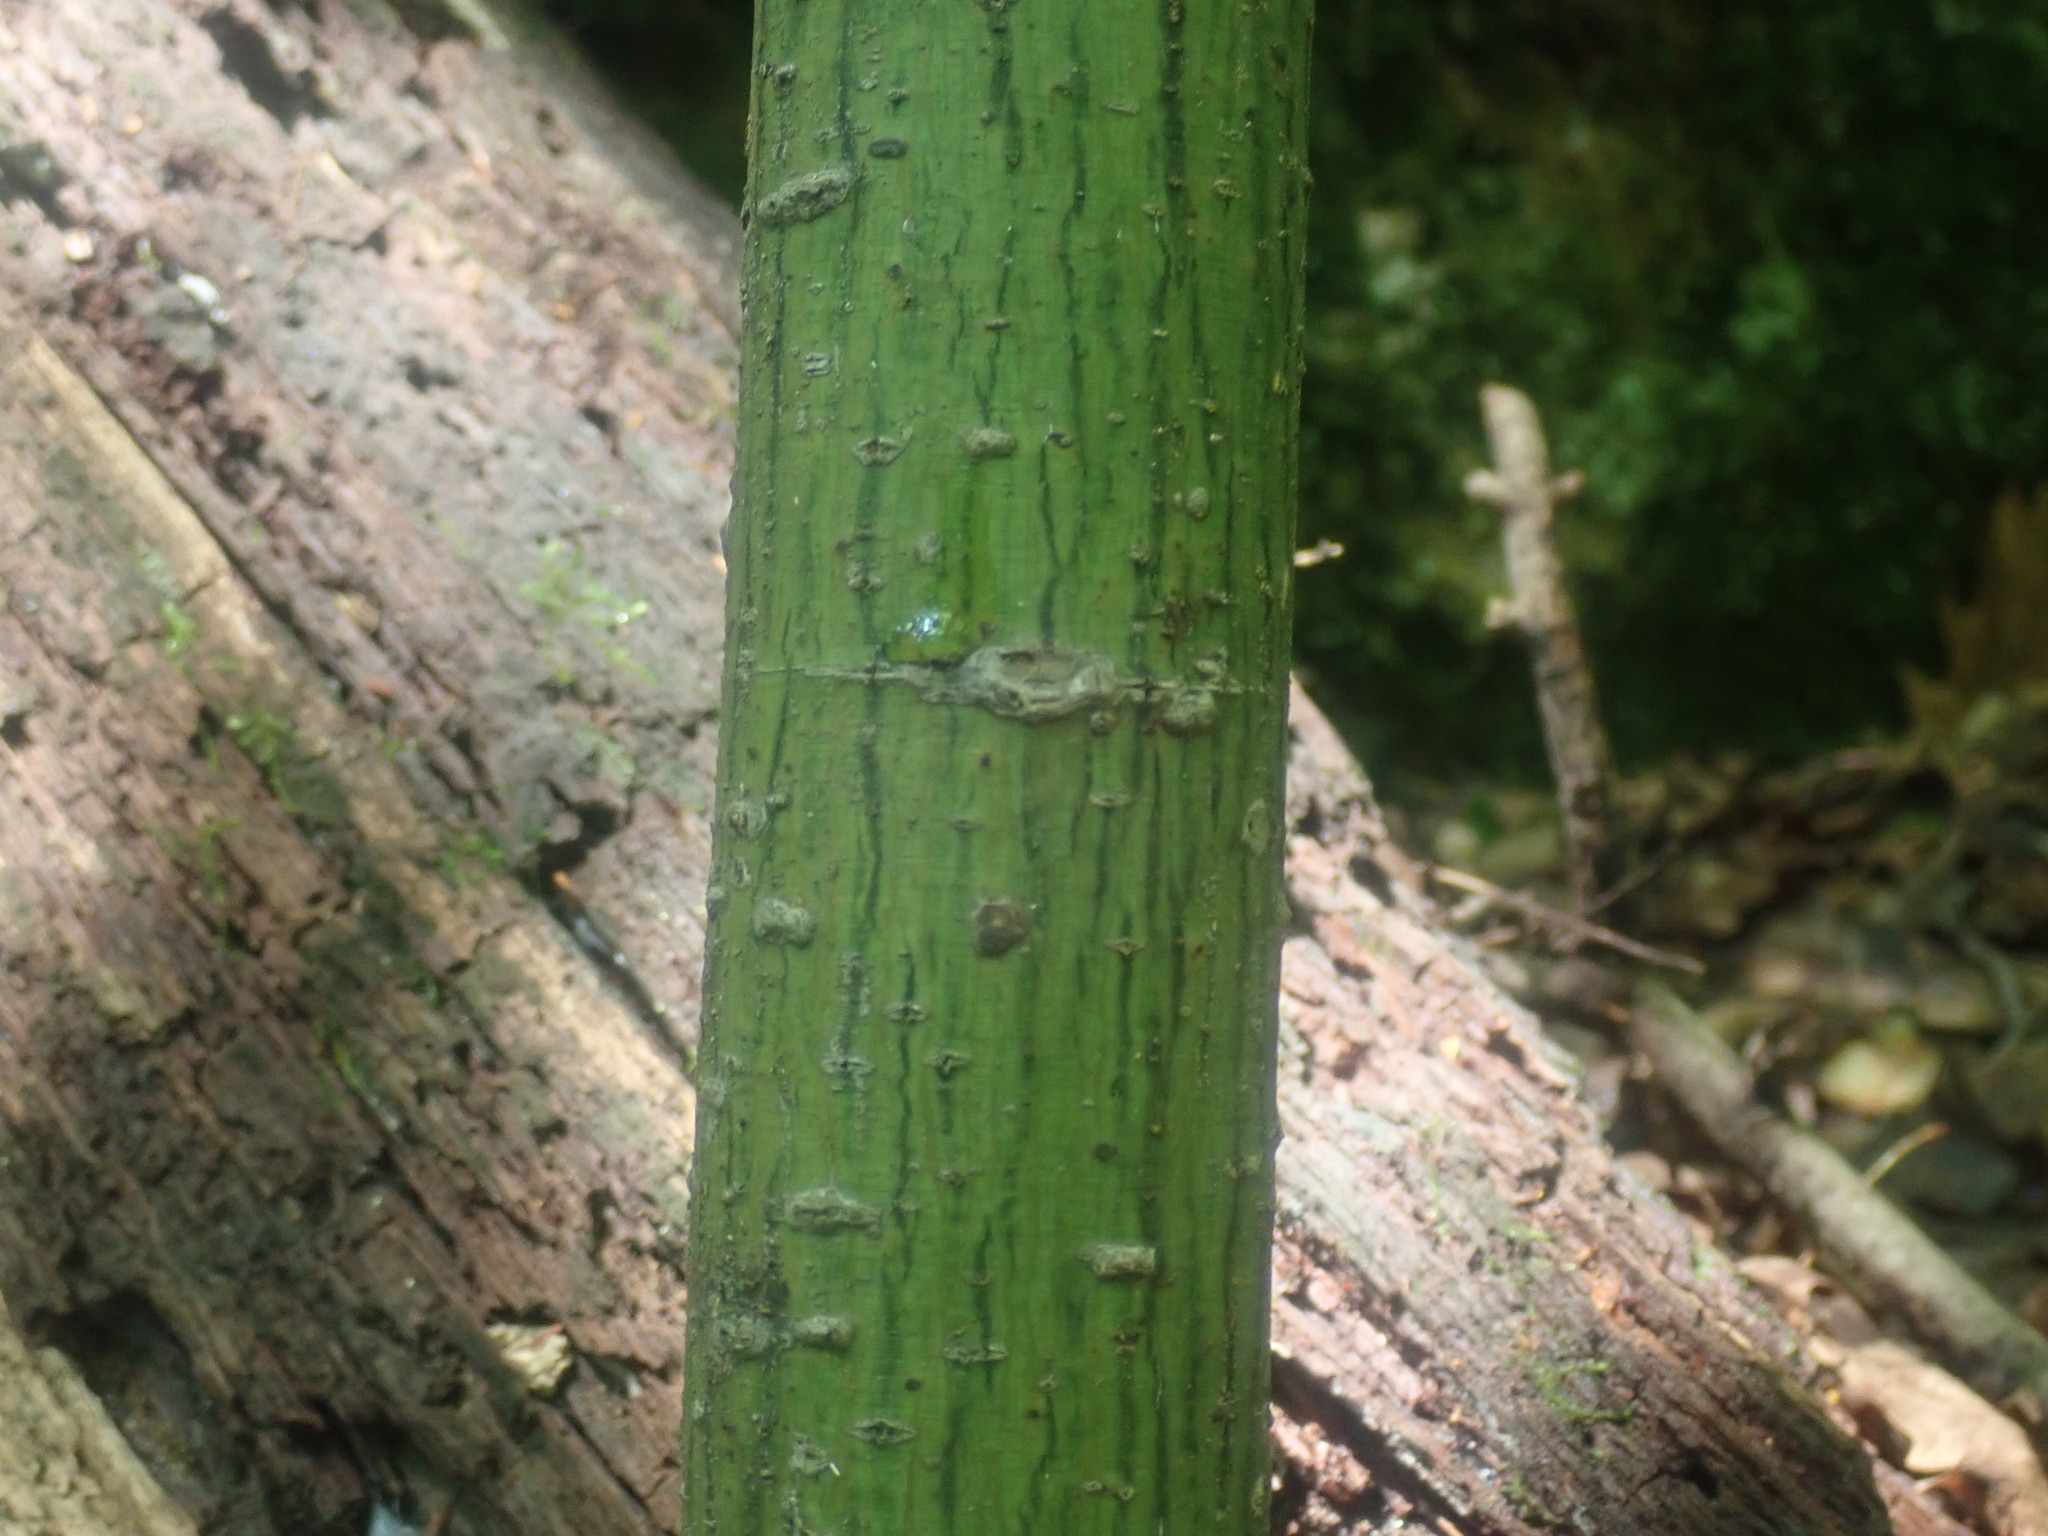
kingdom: Plantae
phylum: Tracheophyta
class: Magnoliopsida
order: Sapindales
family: Sapindaceae
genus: Acer
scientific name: Acer pensylvanicum
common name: Moosewood
